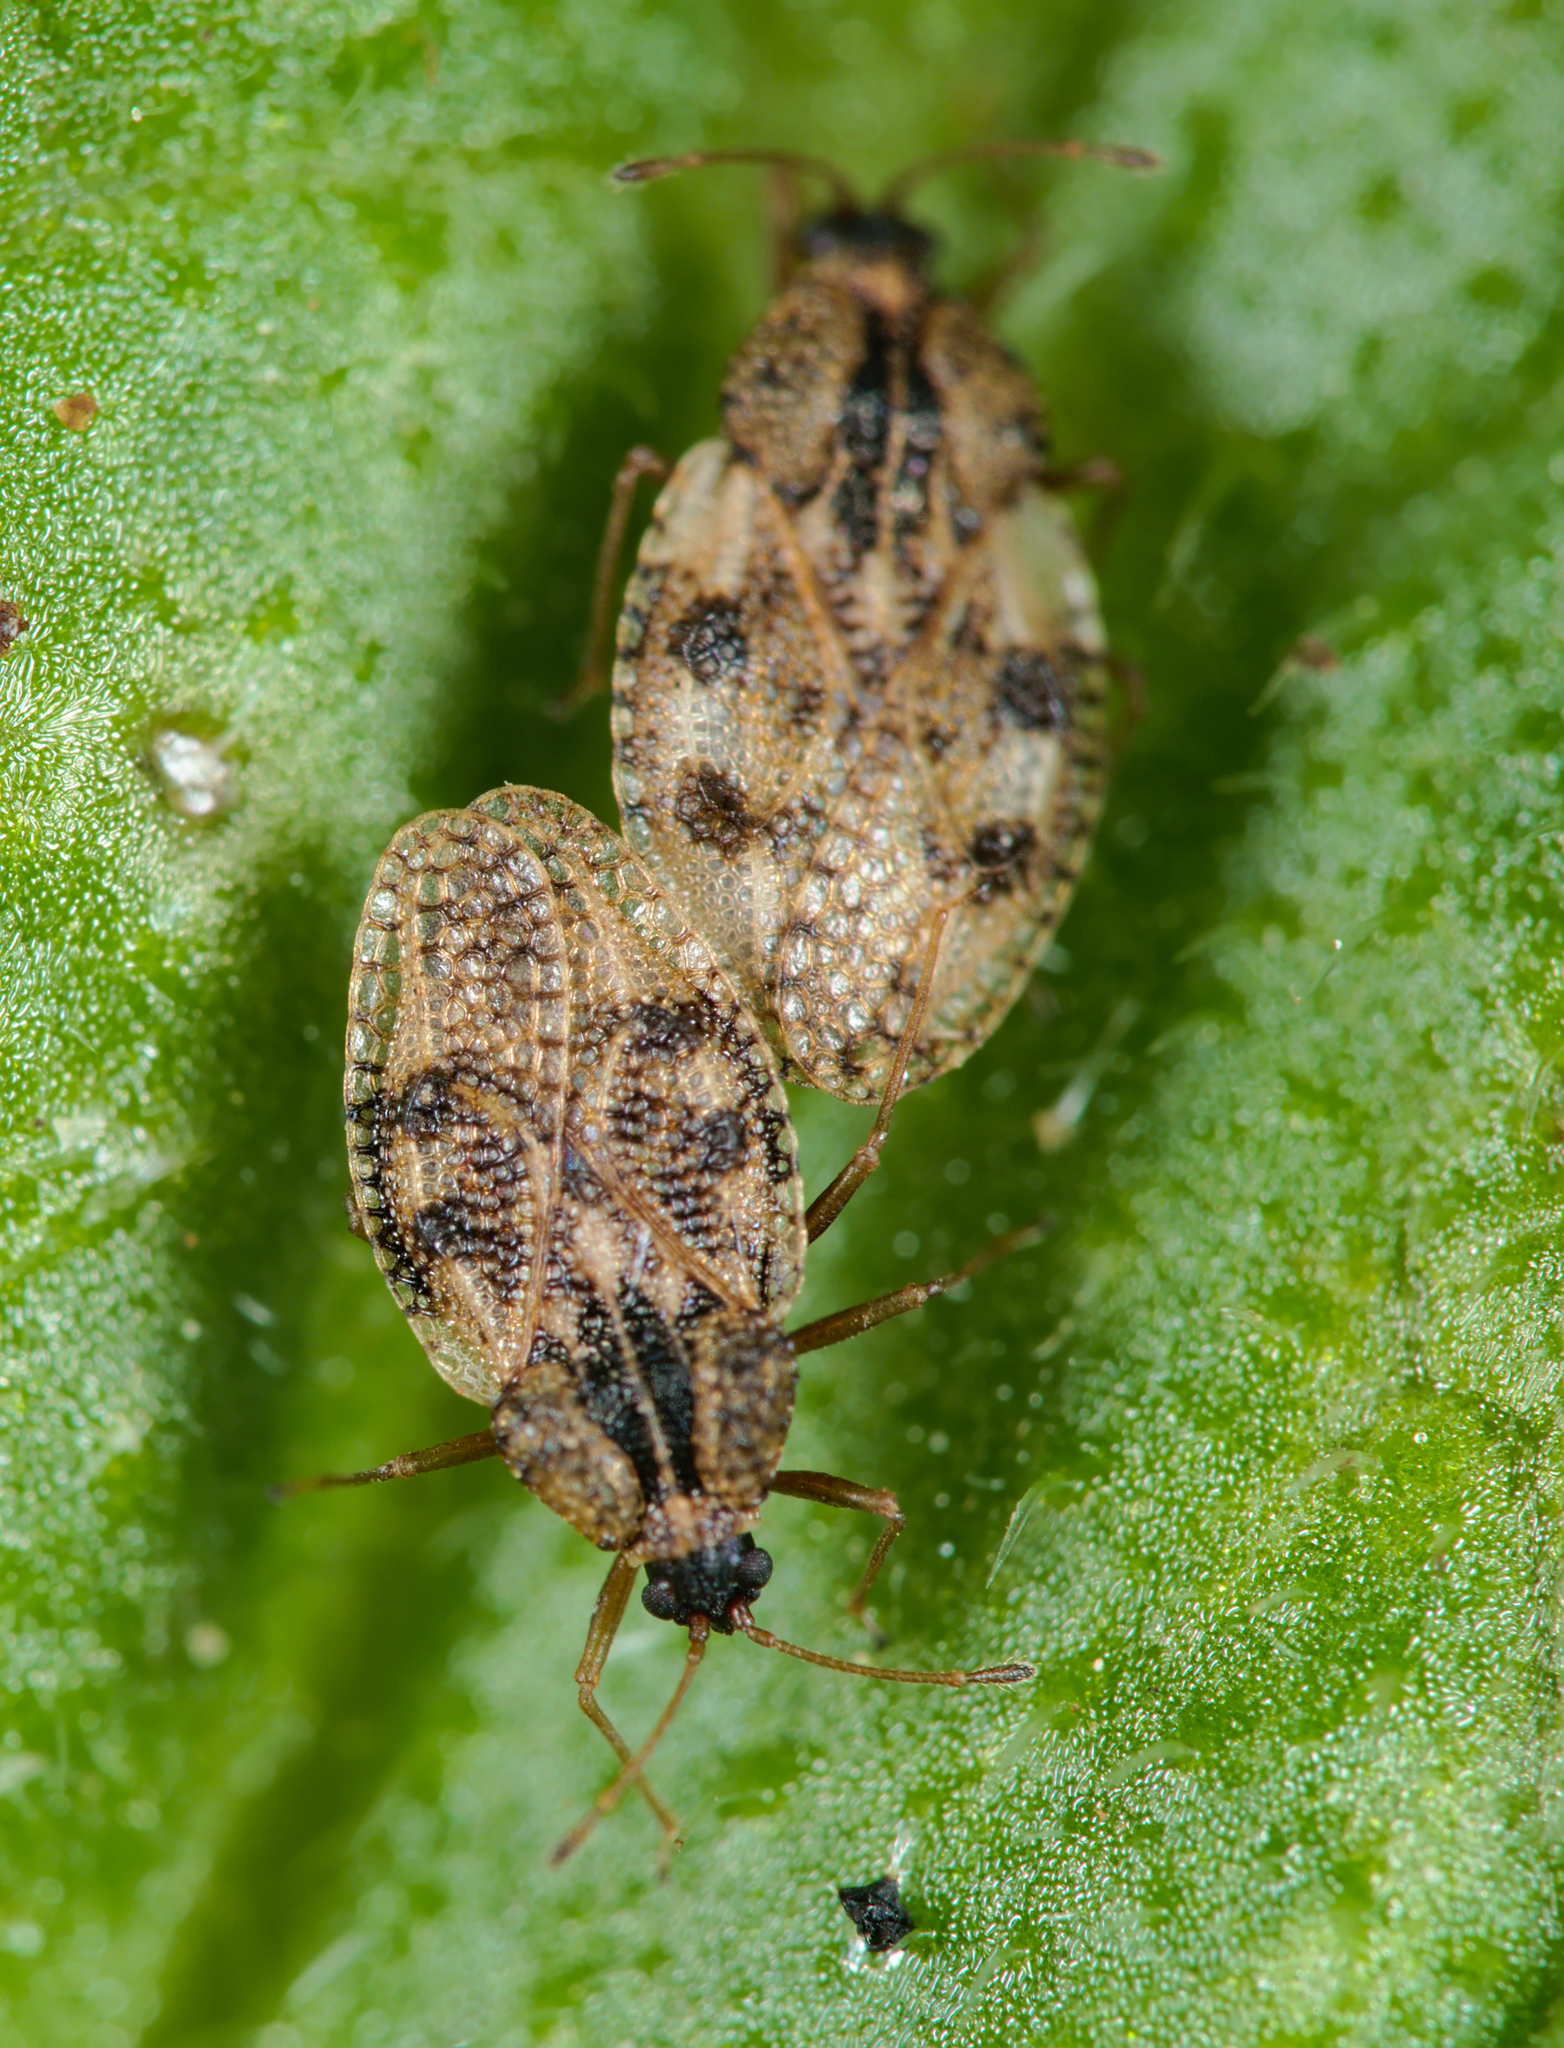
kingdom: Animalia
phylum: Arthropoda
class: Insecta
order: Hemiptera
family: Tingidae
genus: Dictyla
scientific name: Dictyla humuli
